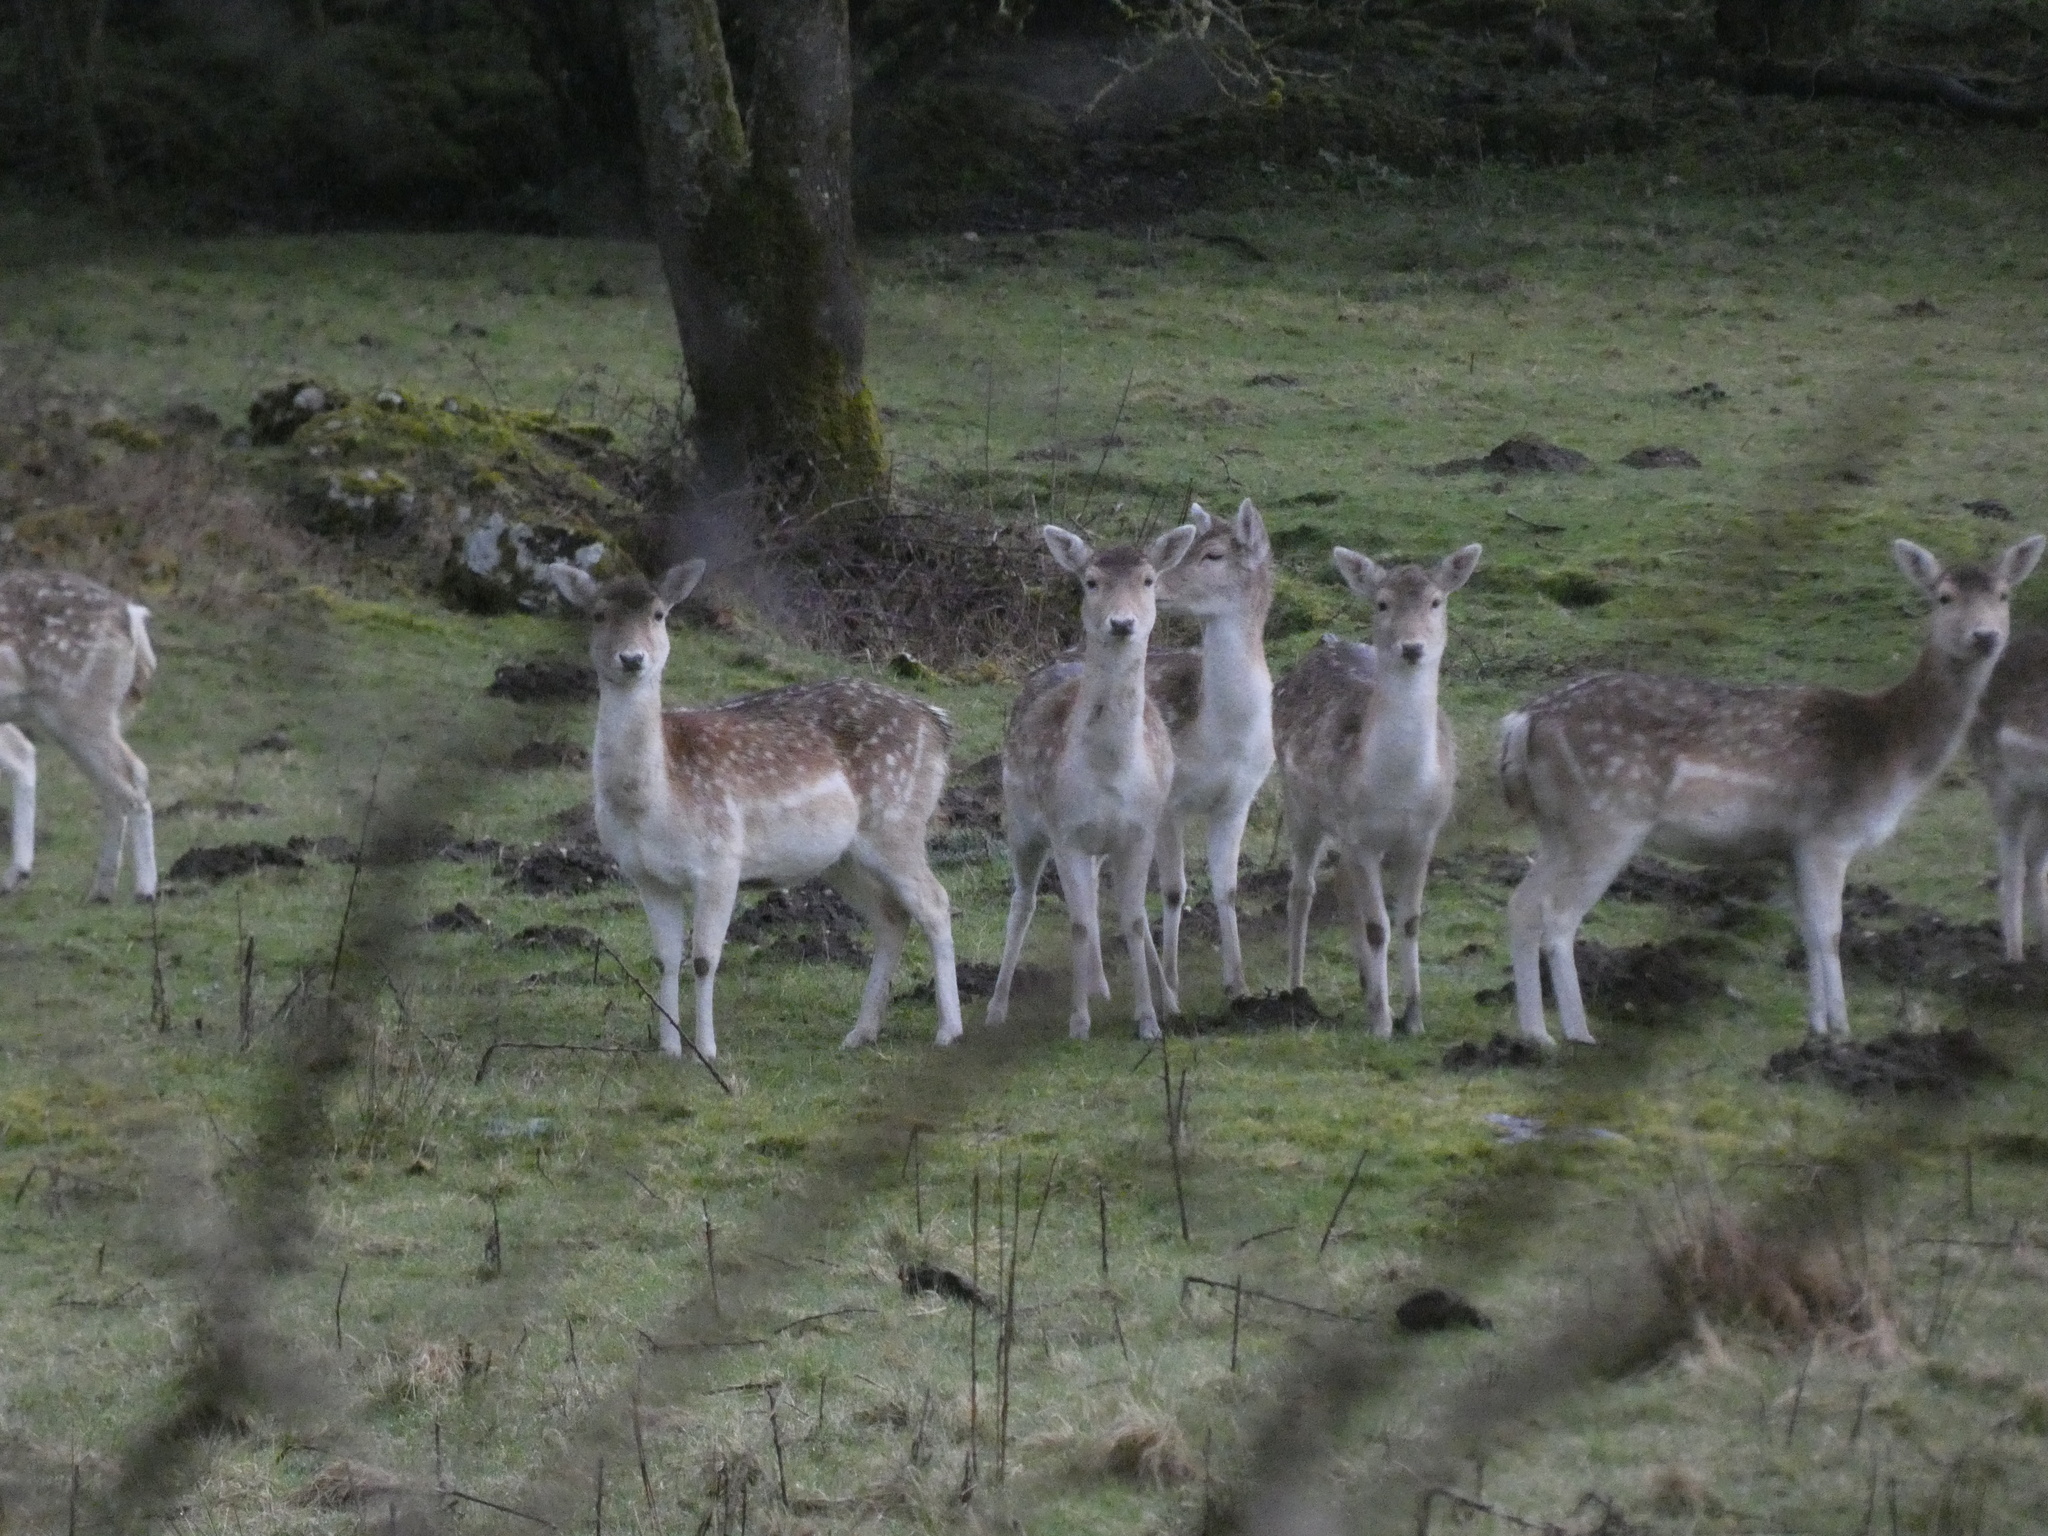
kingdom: Animalia
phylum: Chordata
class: Mammalia
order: Artiodactyla
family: Cervidae
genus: Dama
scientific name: Dama dama
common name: Fallow deer
